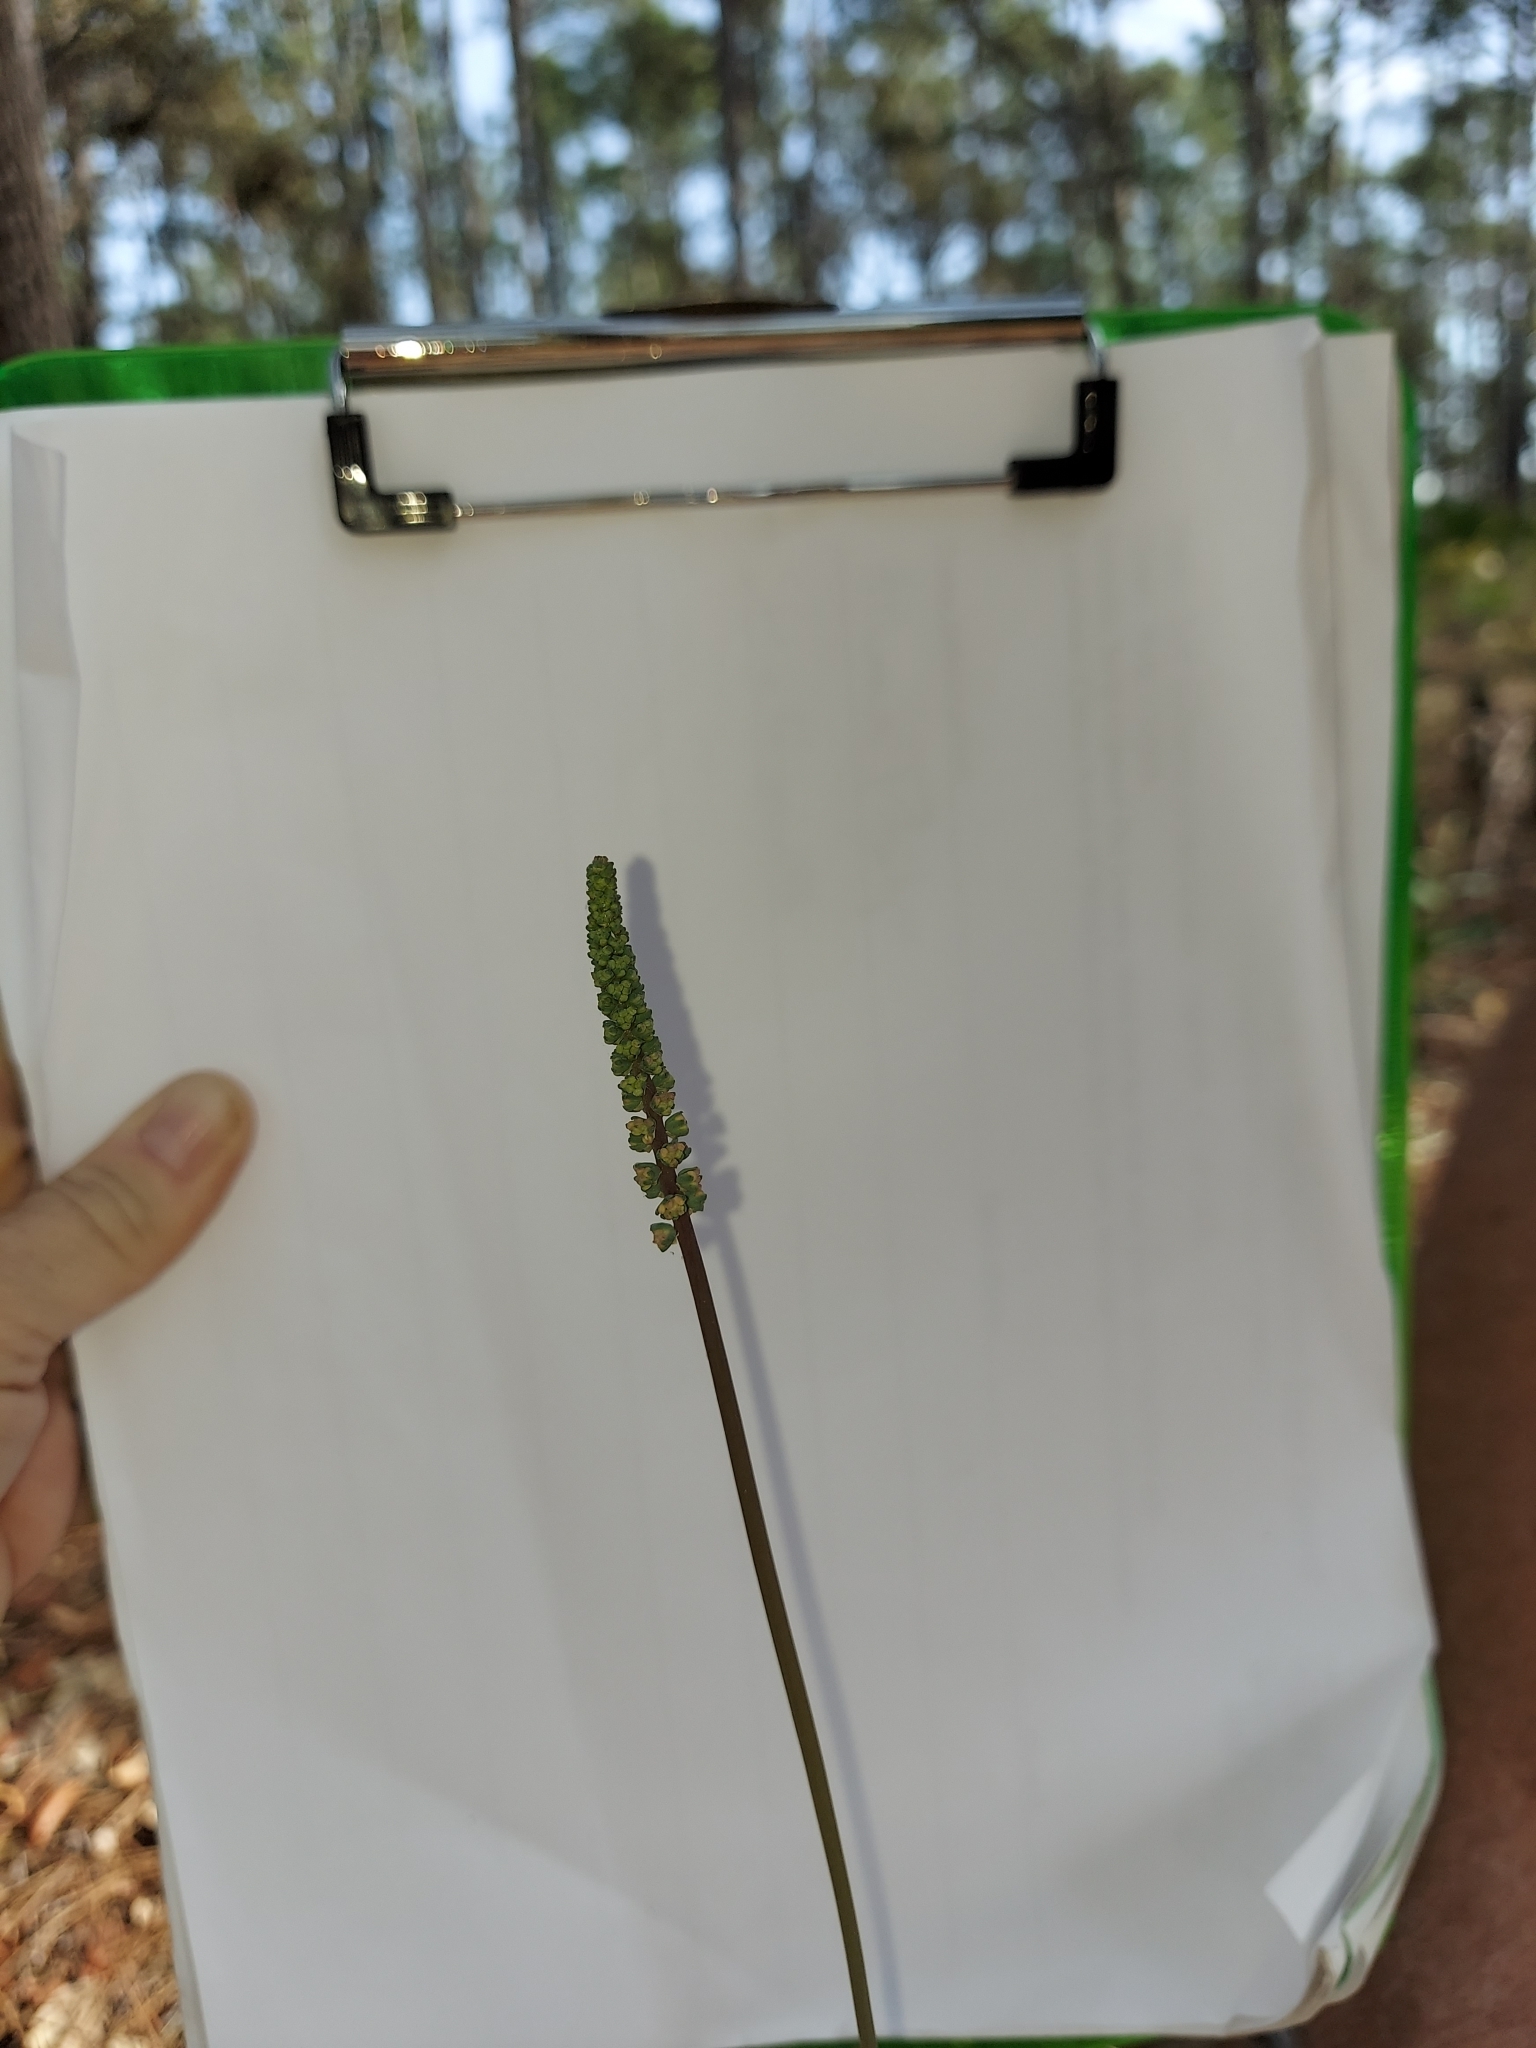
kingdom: Plantae
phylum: Tracheophyta
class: Liliopsida
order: Liliales
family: Melanthiaceae
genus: Schoenocaulon
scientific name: Schoenocaulon dubium
